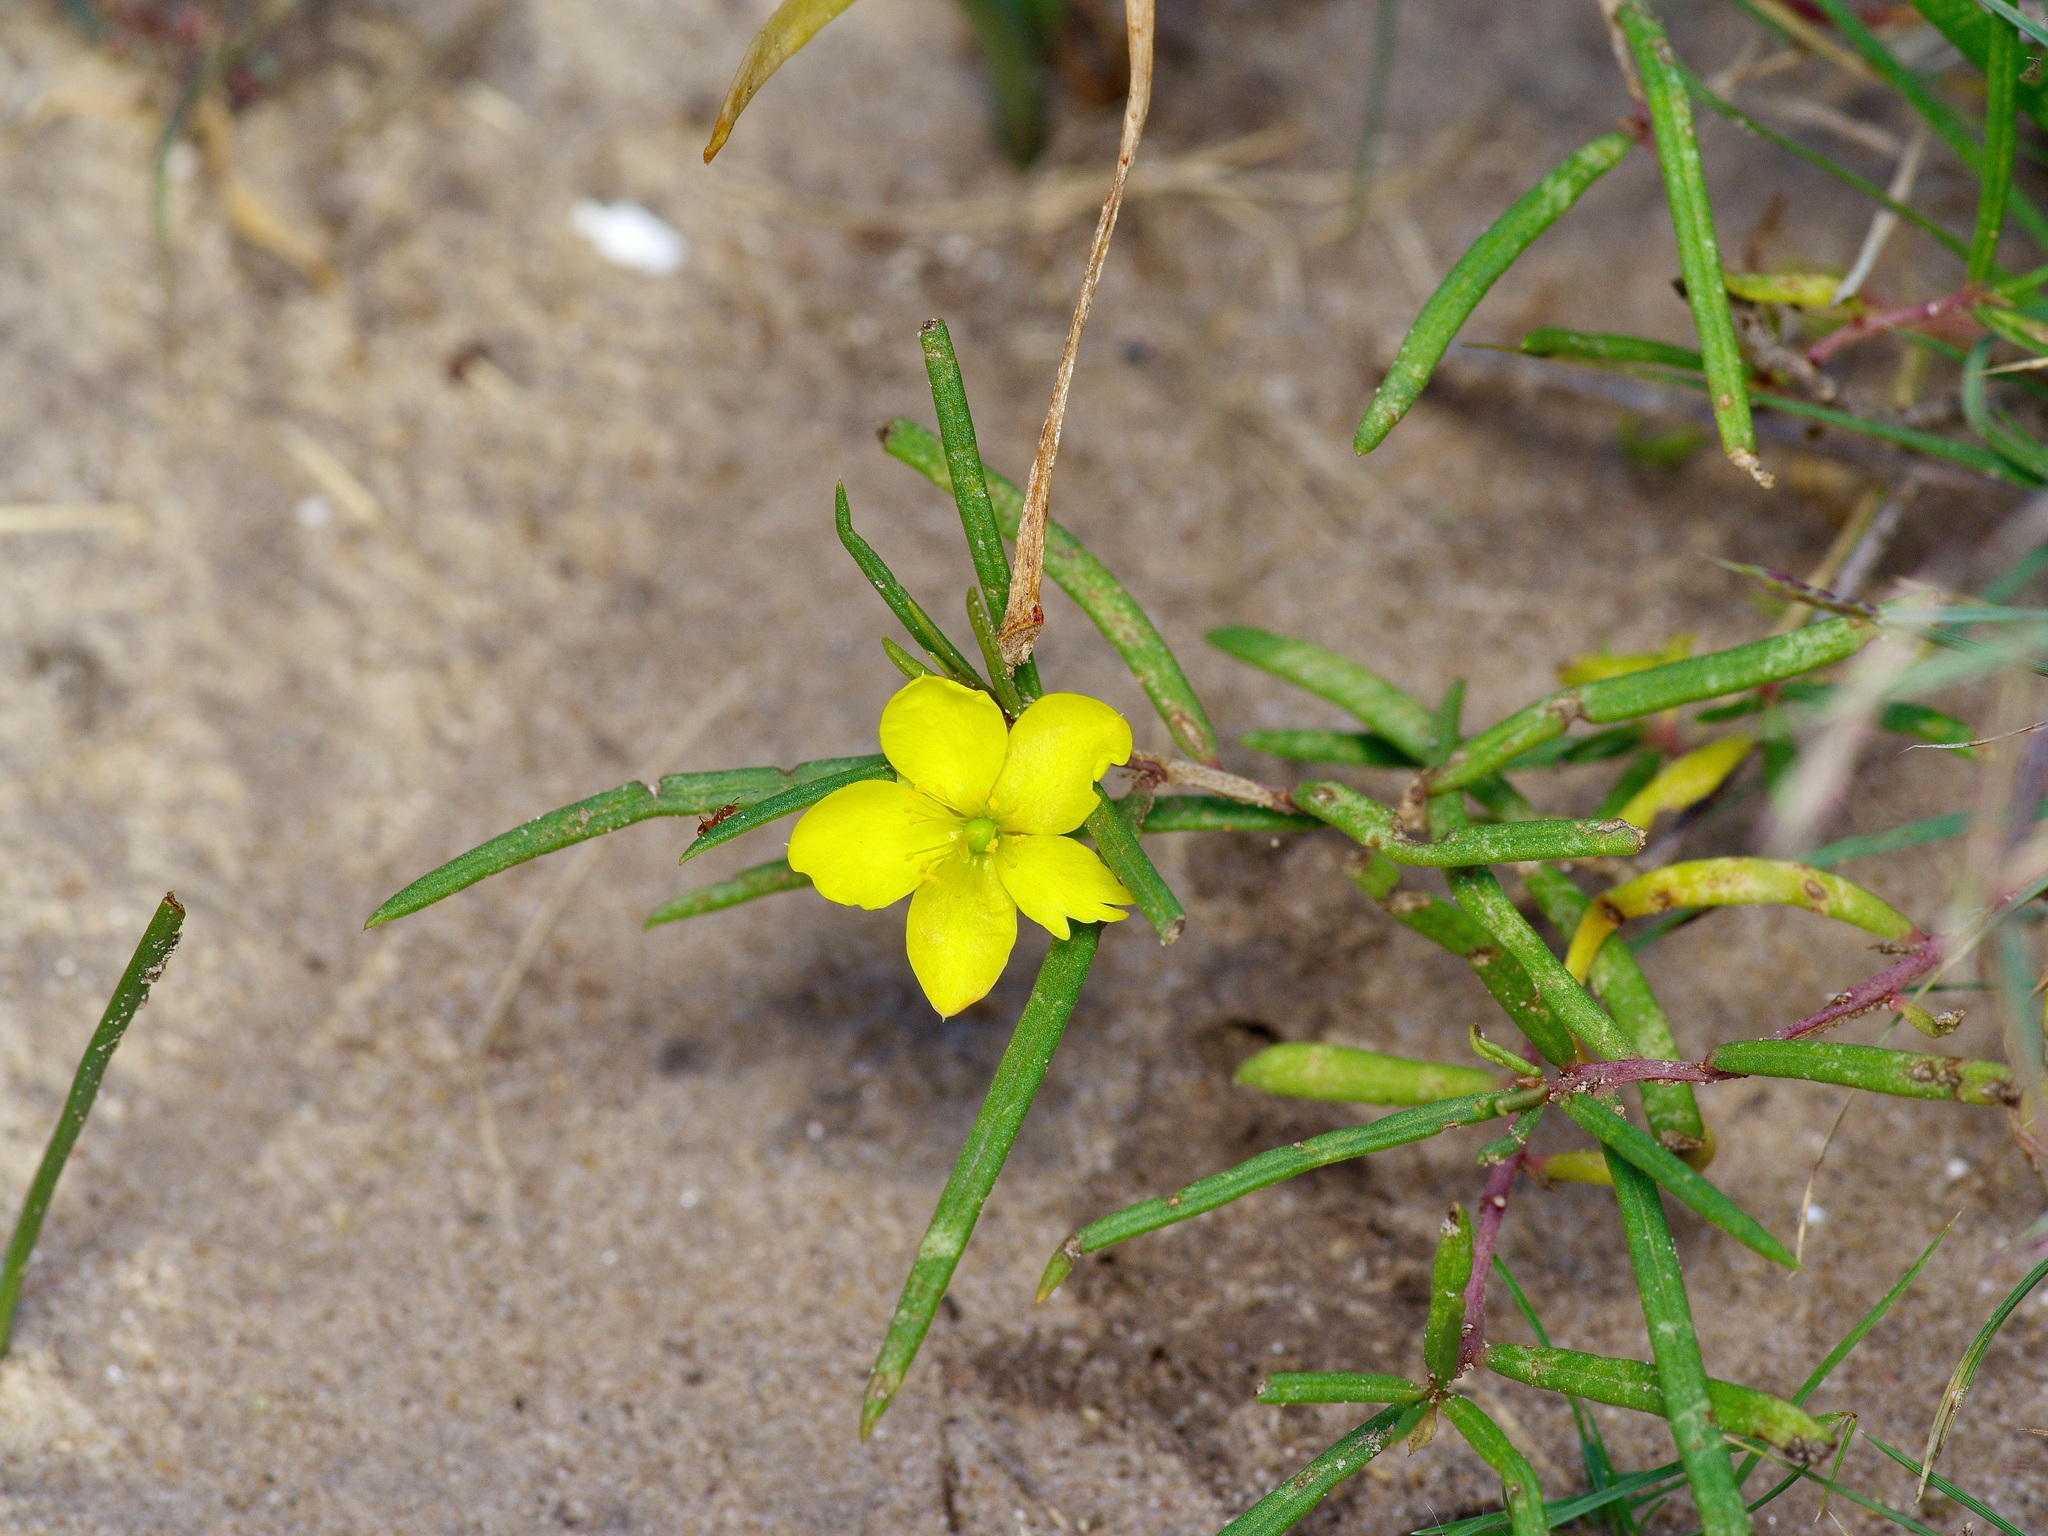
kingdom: Plantae
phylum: Tracheophyta
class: Magnoliopsida
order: Caryophyllales
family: Talinaceae
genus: Talinum
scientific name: Talinum polygaloides
